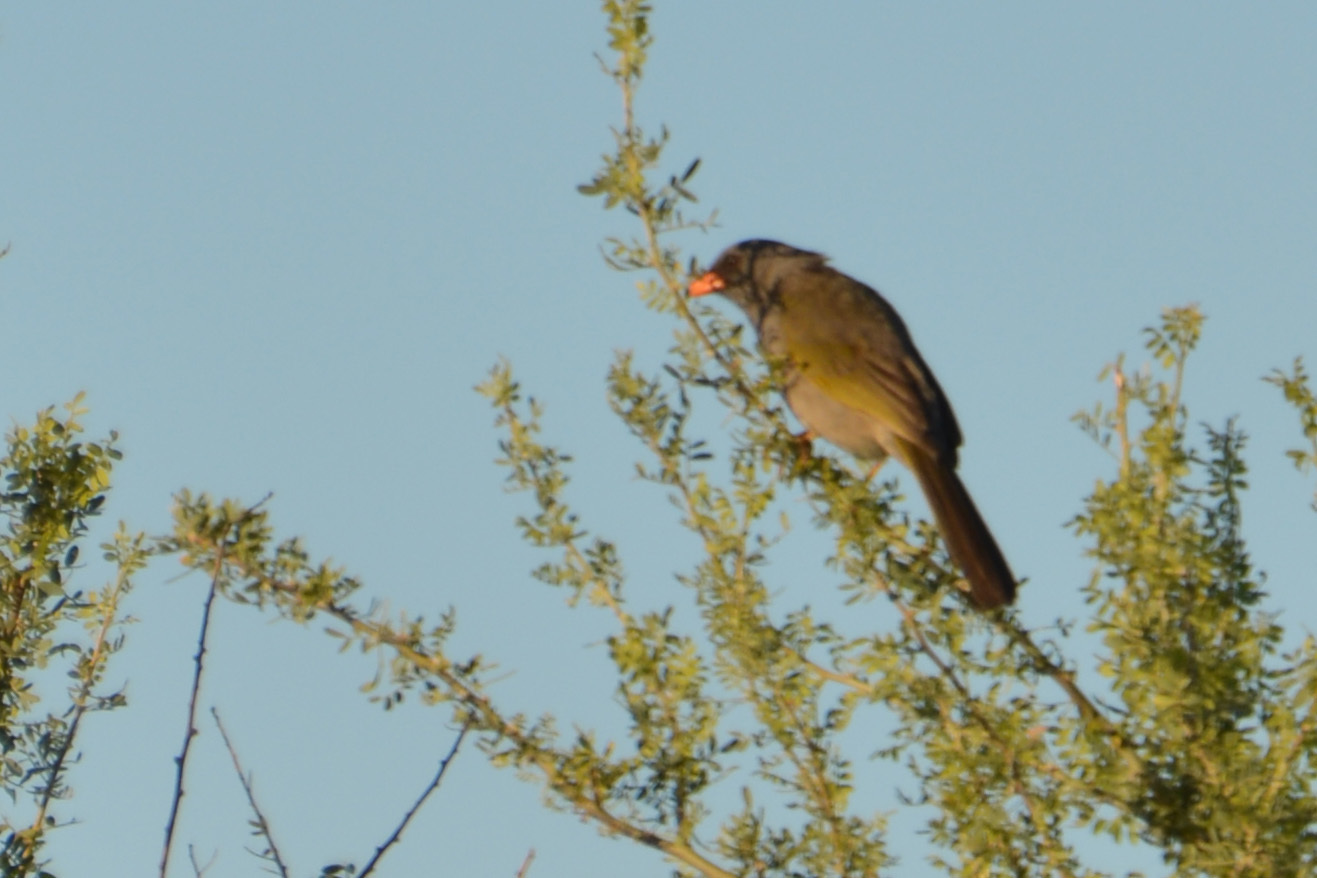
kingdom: Animalia
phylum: Chordata
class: Aves
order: Passeriformes
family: Thraupidae
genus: Embernagra
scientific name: Embernagra platensis
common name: Pampa finch
